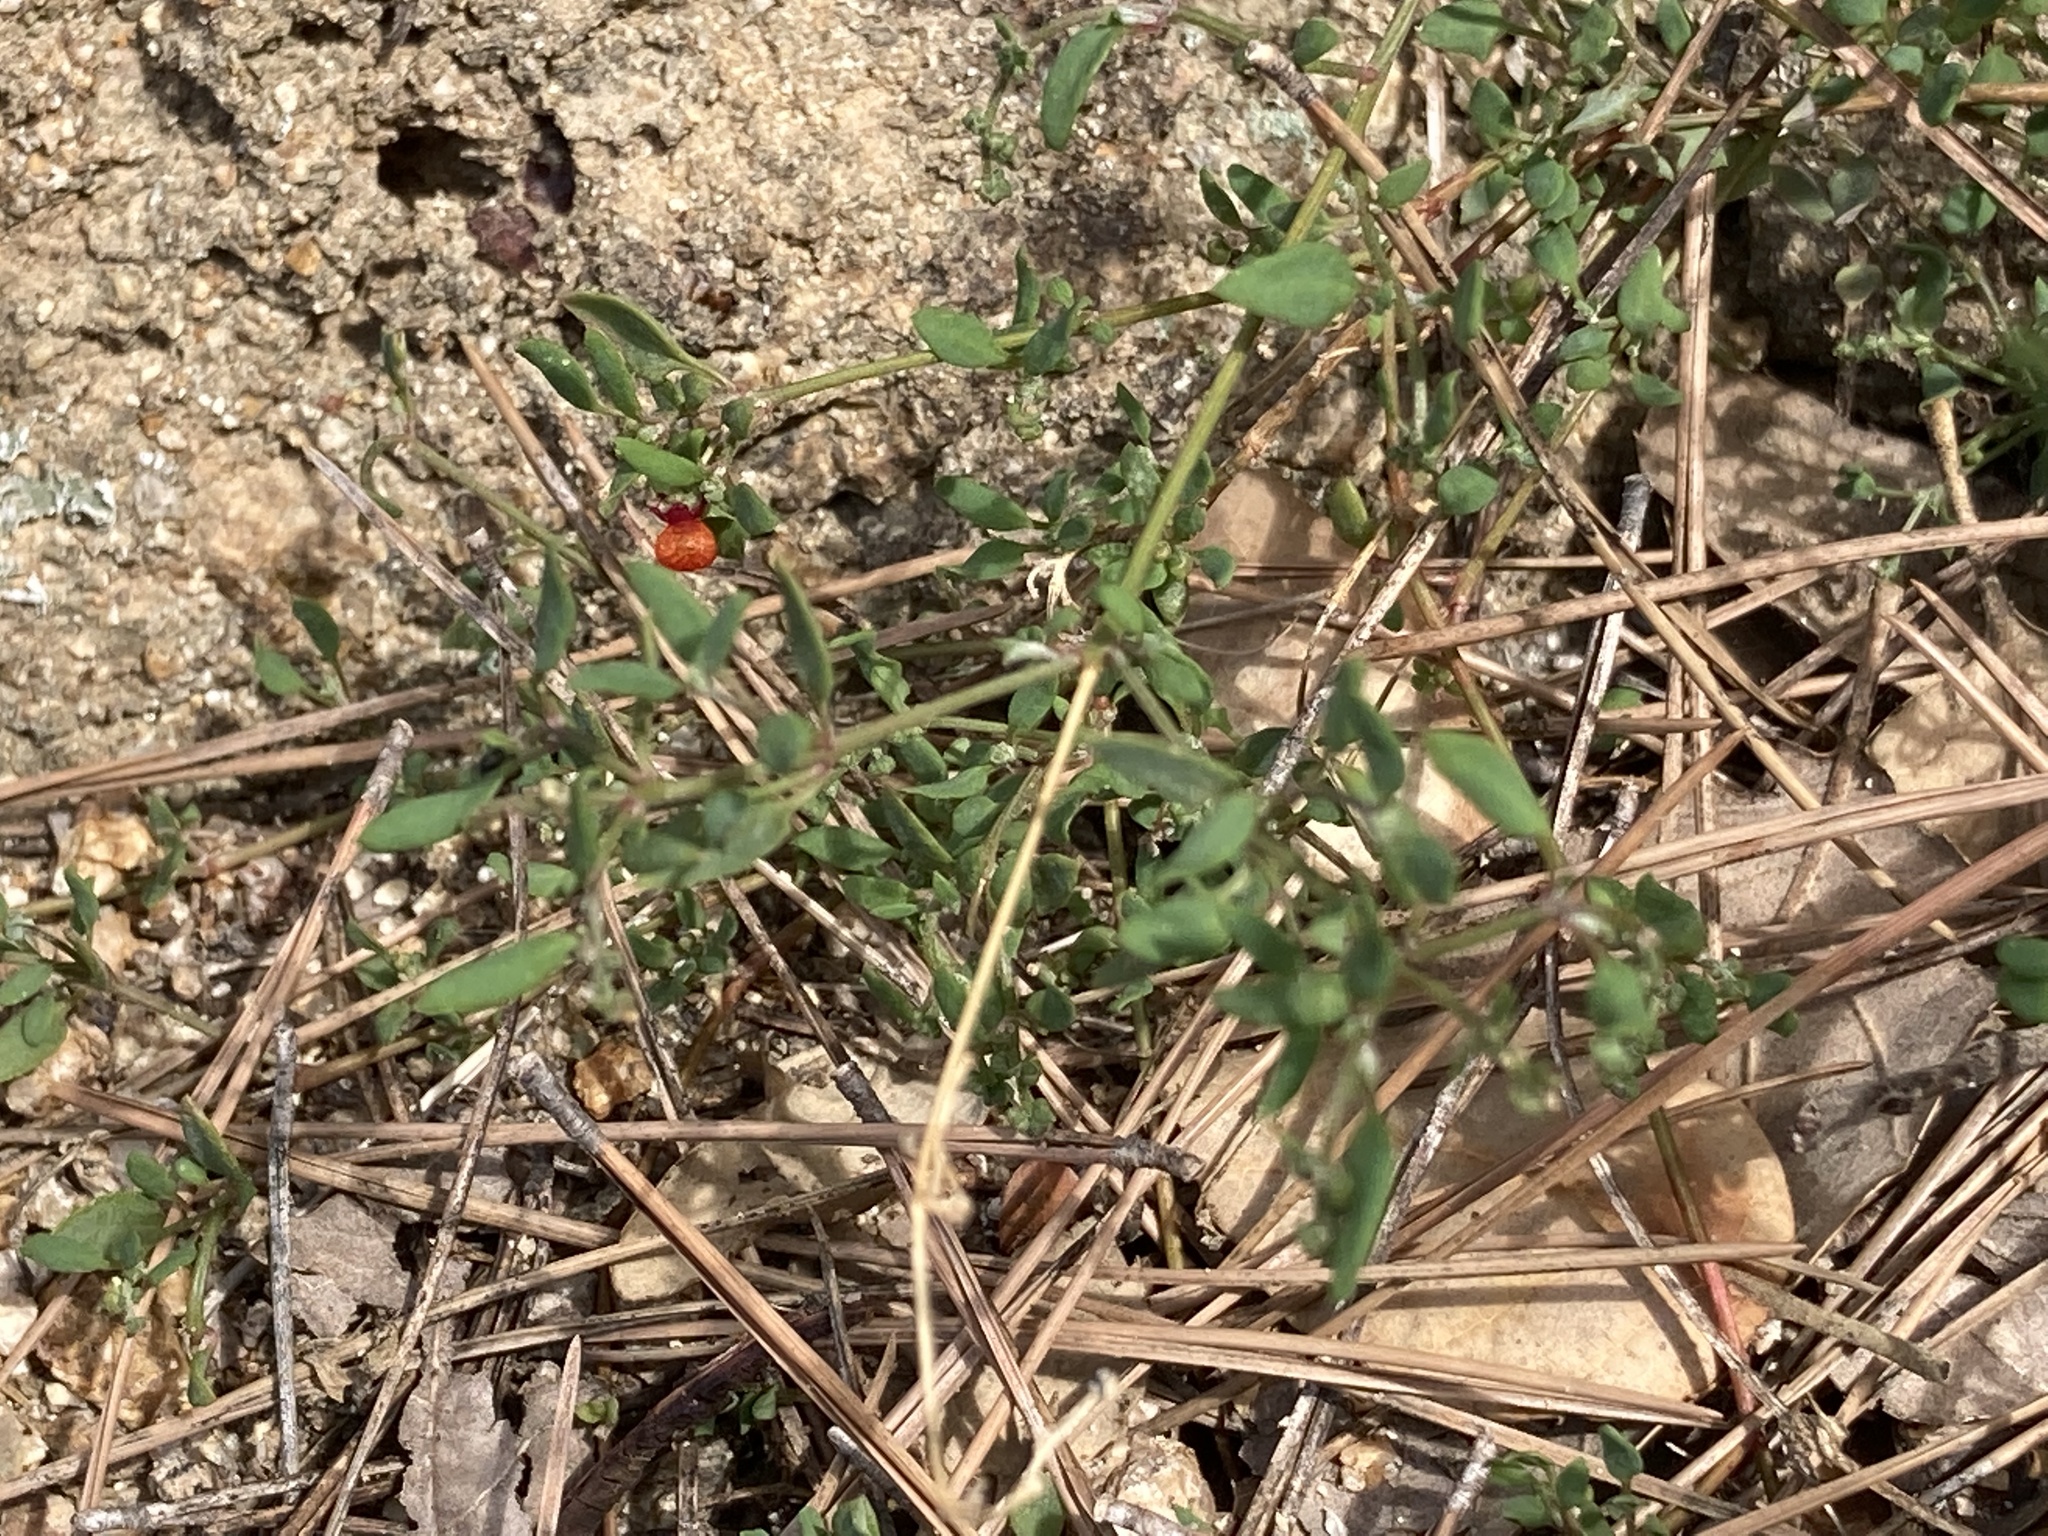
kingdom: Plantae
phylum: Tracheophyta
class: Magnoliopsida
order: Caryophyllales
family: Amaranthaceae
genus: Chenopodium
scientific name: Chenopodium nutans
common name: Climbing-saltbush
